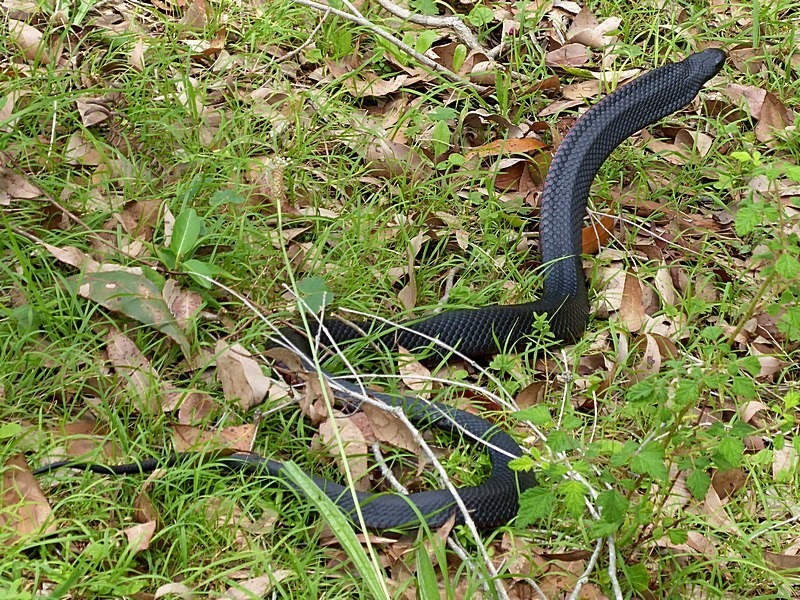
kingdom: Animalia
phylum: Chordata
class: Squamata
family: Elapidae
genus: Pseudechis
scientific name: Pseudechis porphyriacus
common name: Australian black snake
